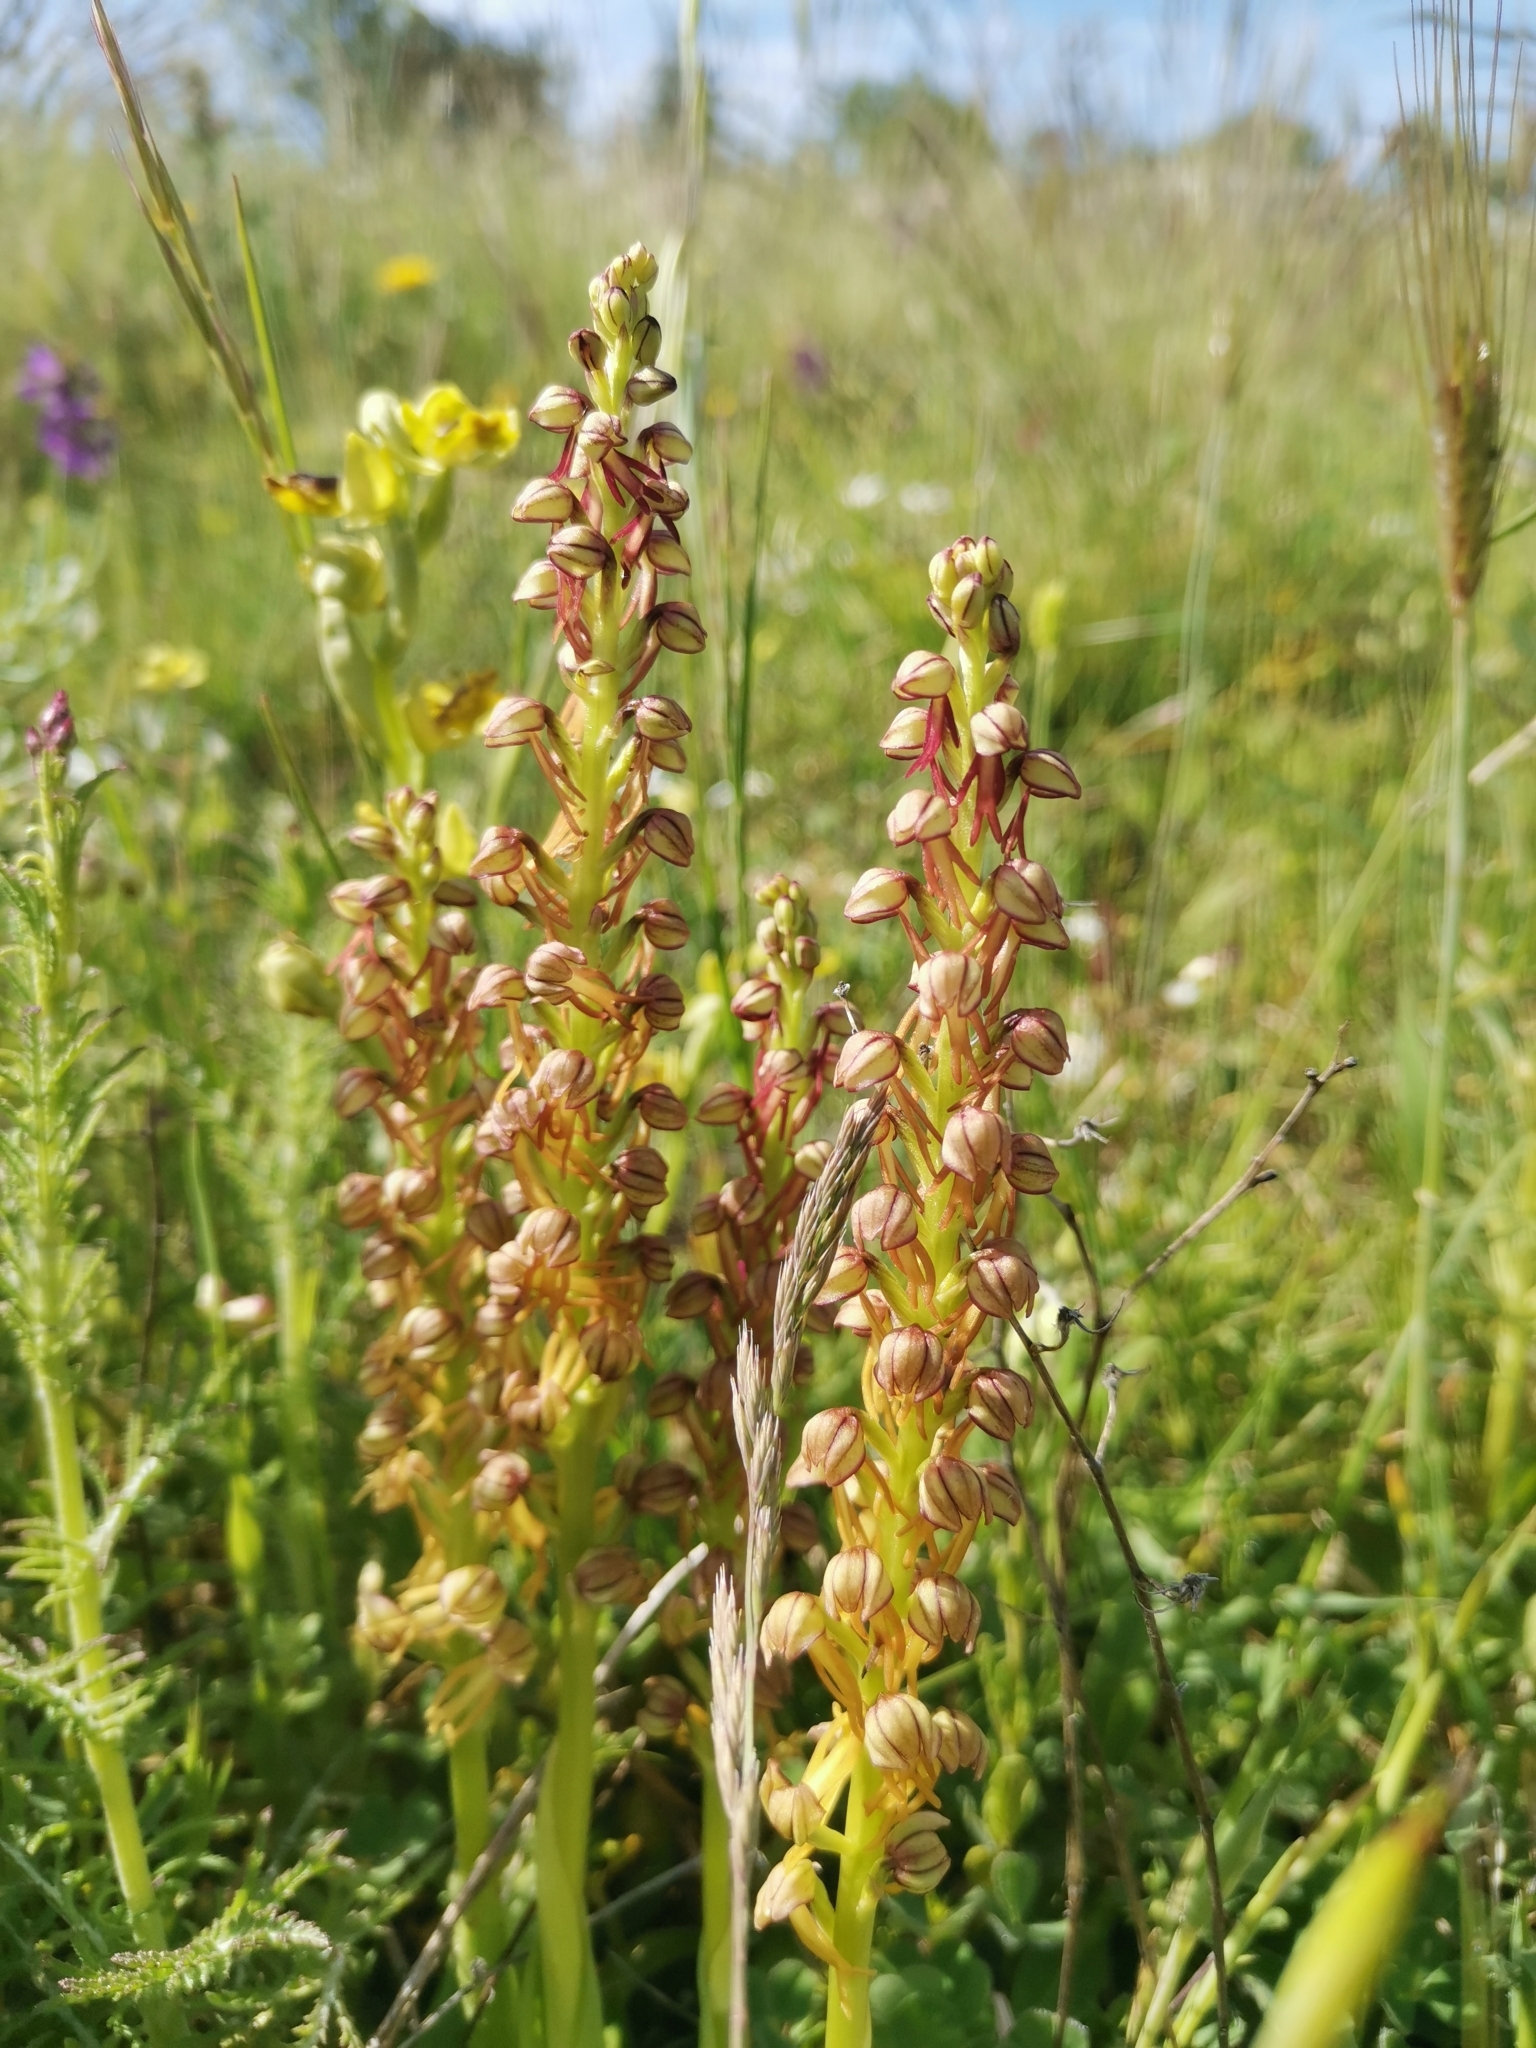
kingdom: Plantae
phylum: Tracheophyta
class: Liliopsida
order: Asparagales
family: Orchidaceae
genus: Orchis
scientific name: Orchis anthropophora
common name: Man orchid
